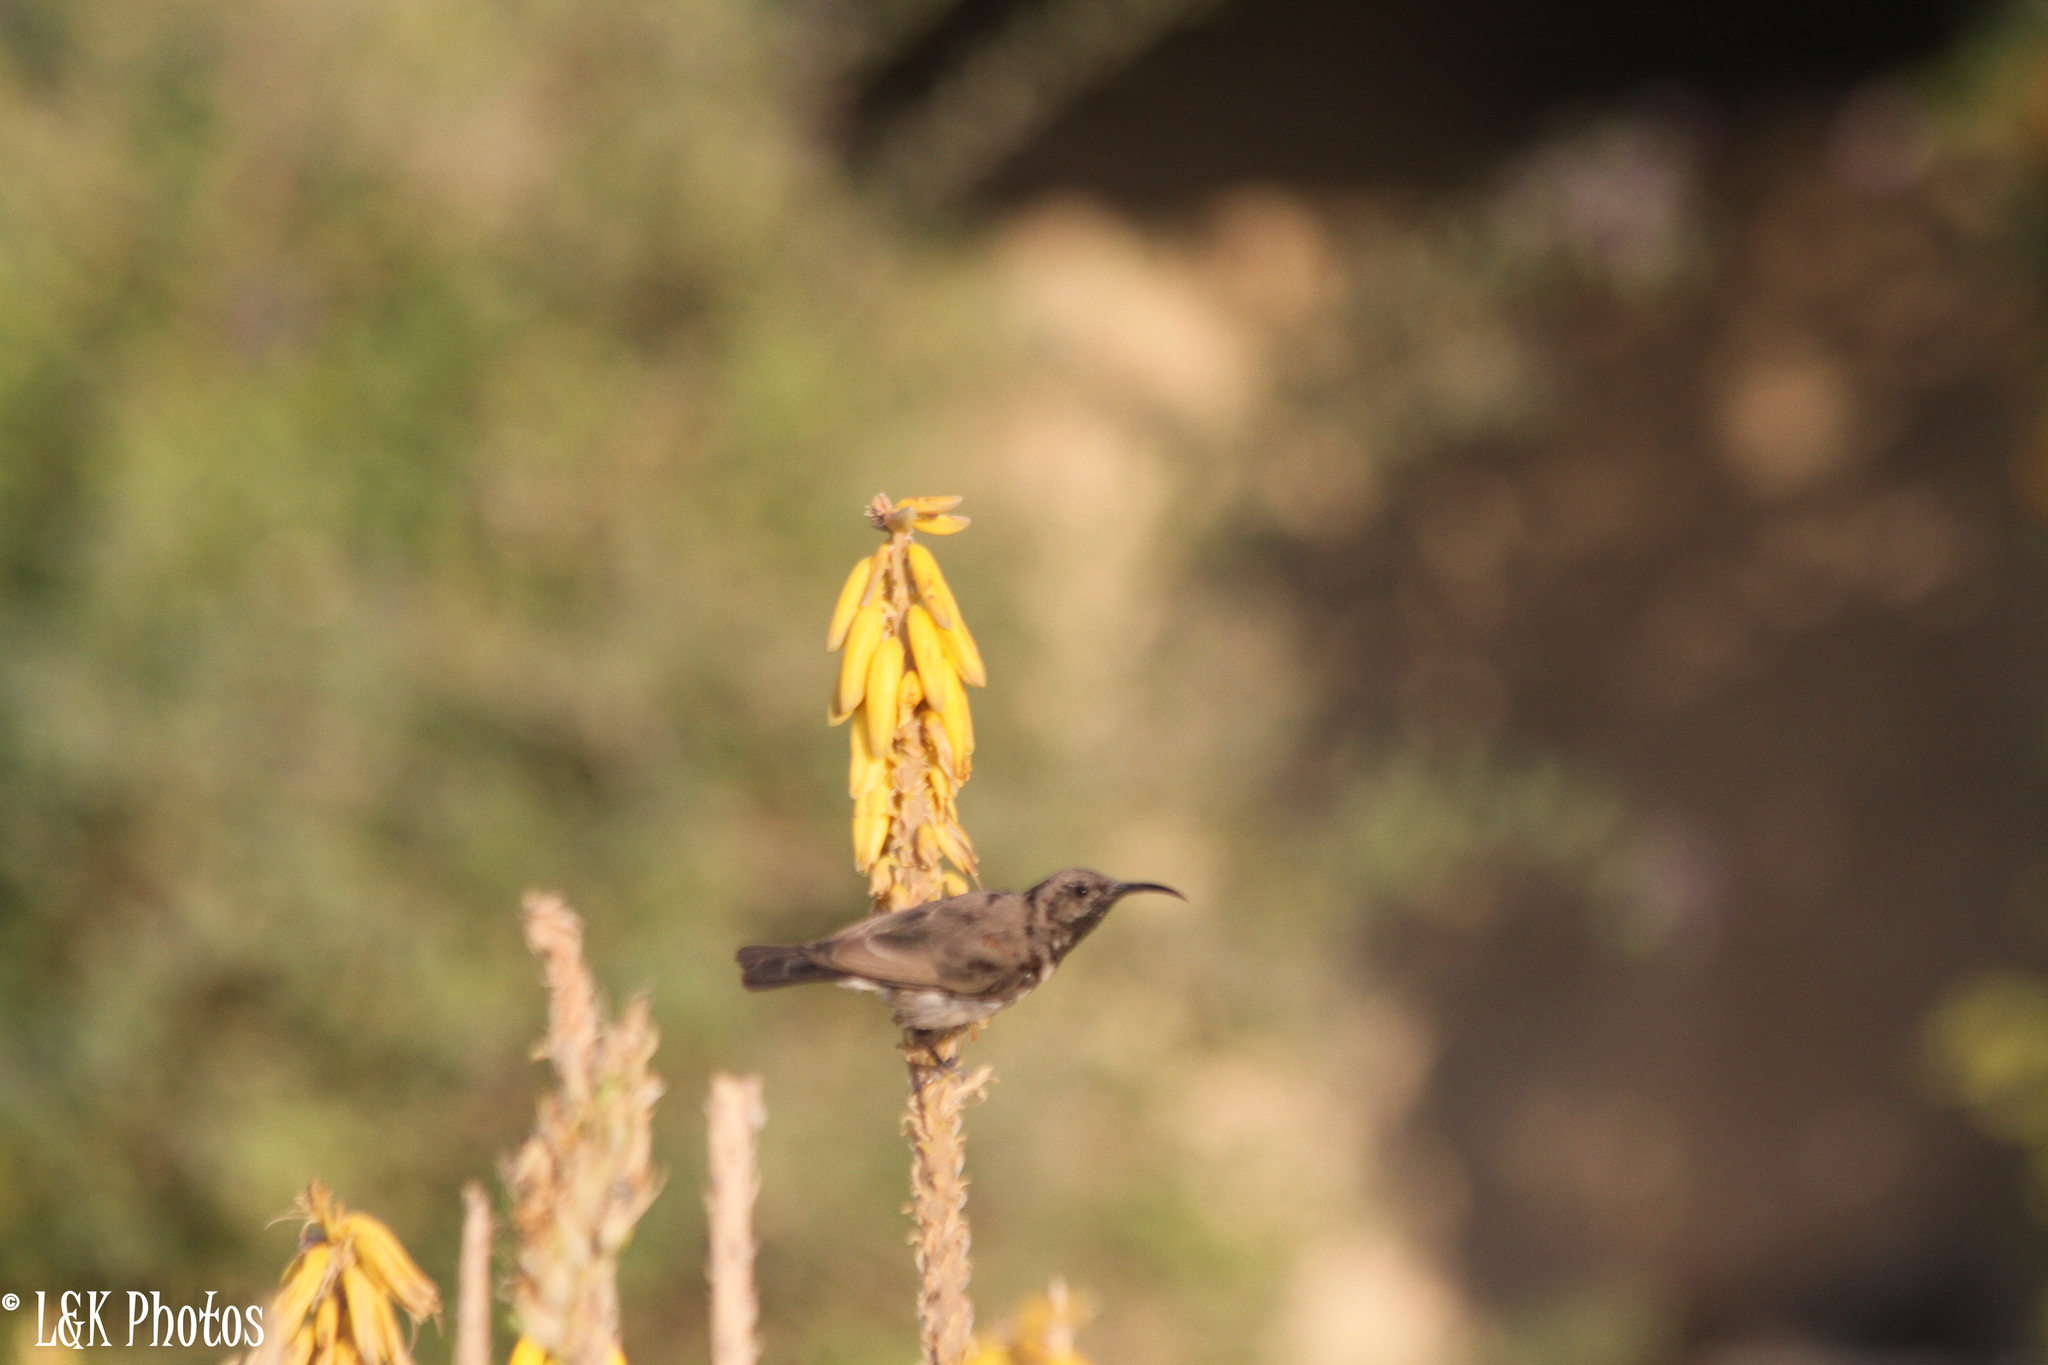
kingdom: Animalia
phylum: Chordata
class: Aves
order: Passeriformes
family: Nectariniidae
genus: Cinnyris
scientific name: Cinnyris fuscus
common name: Dusky sunbird
